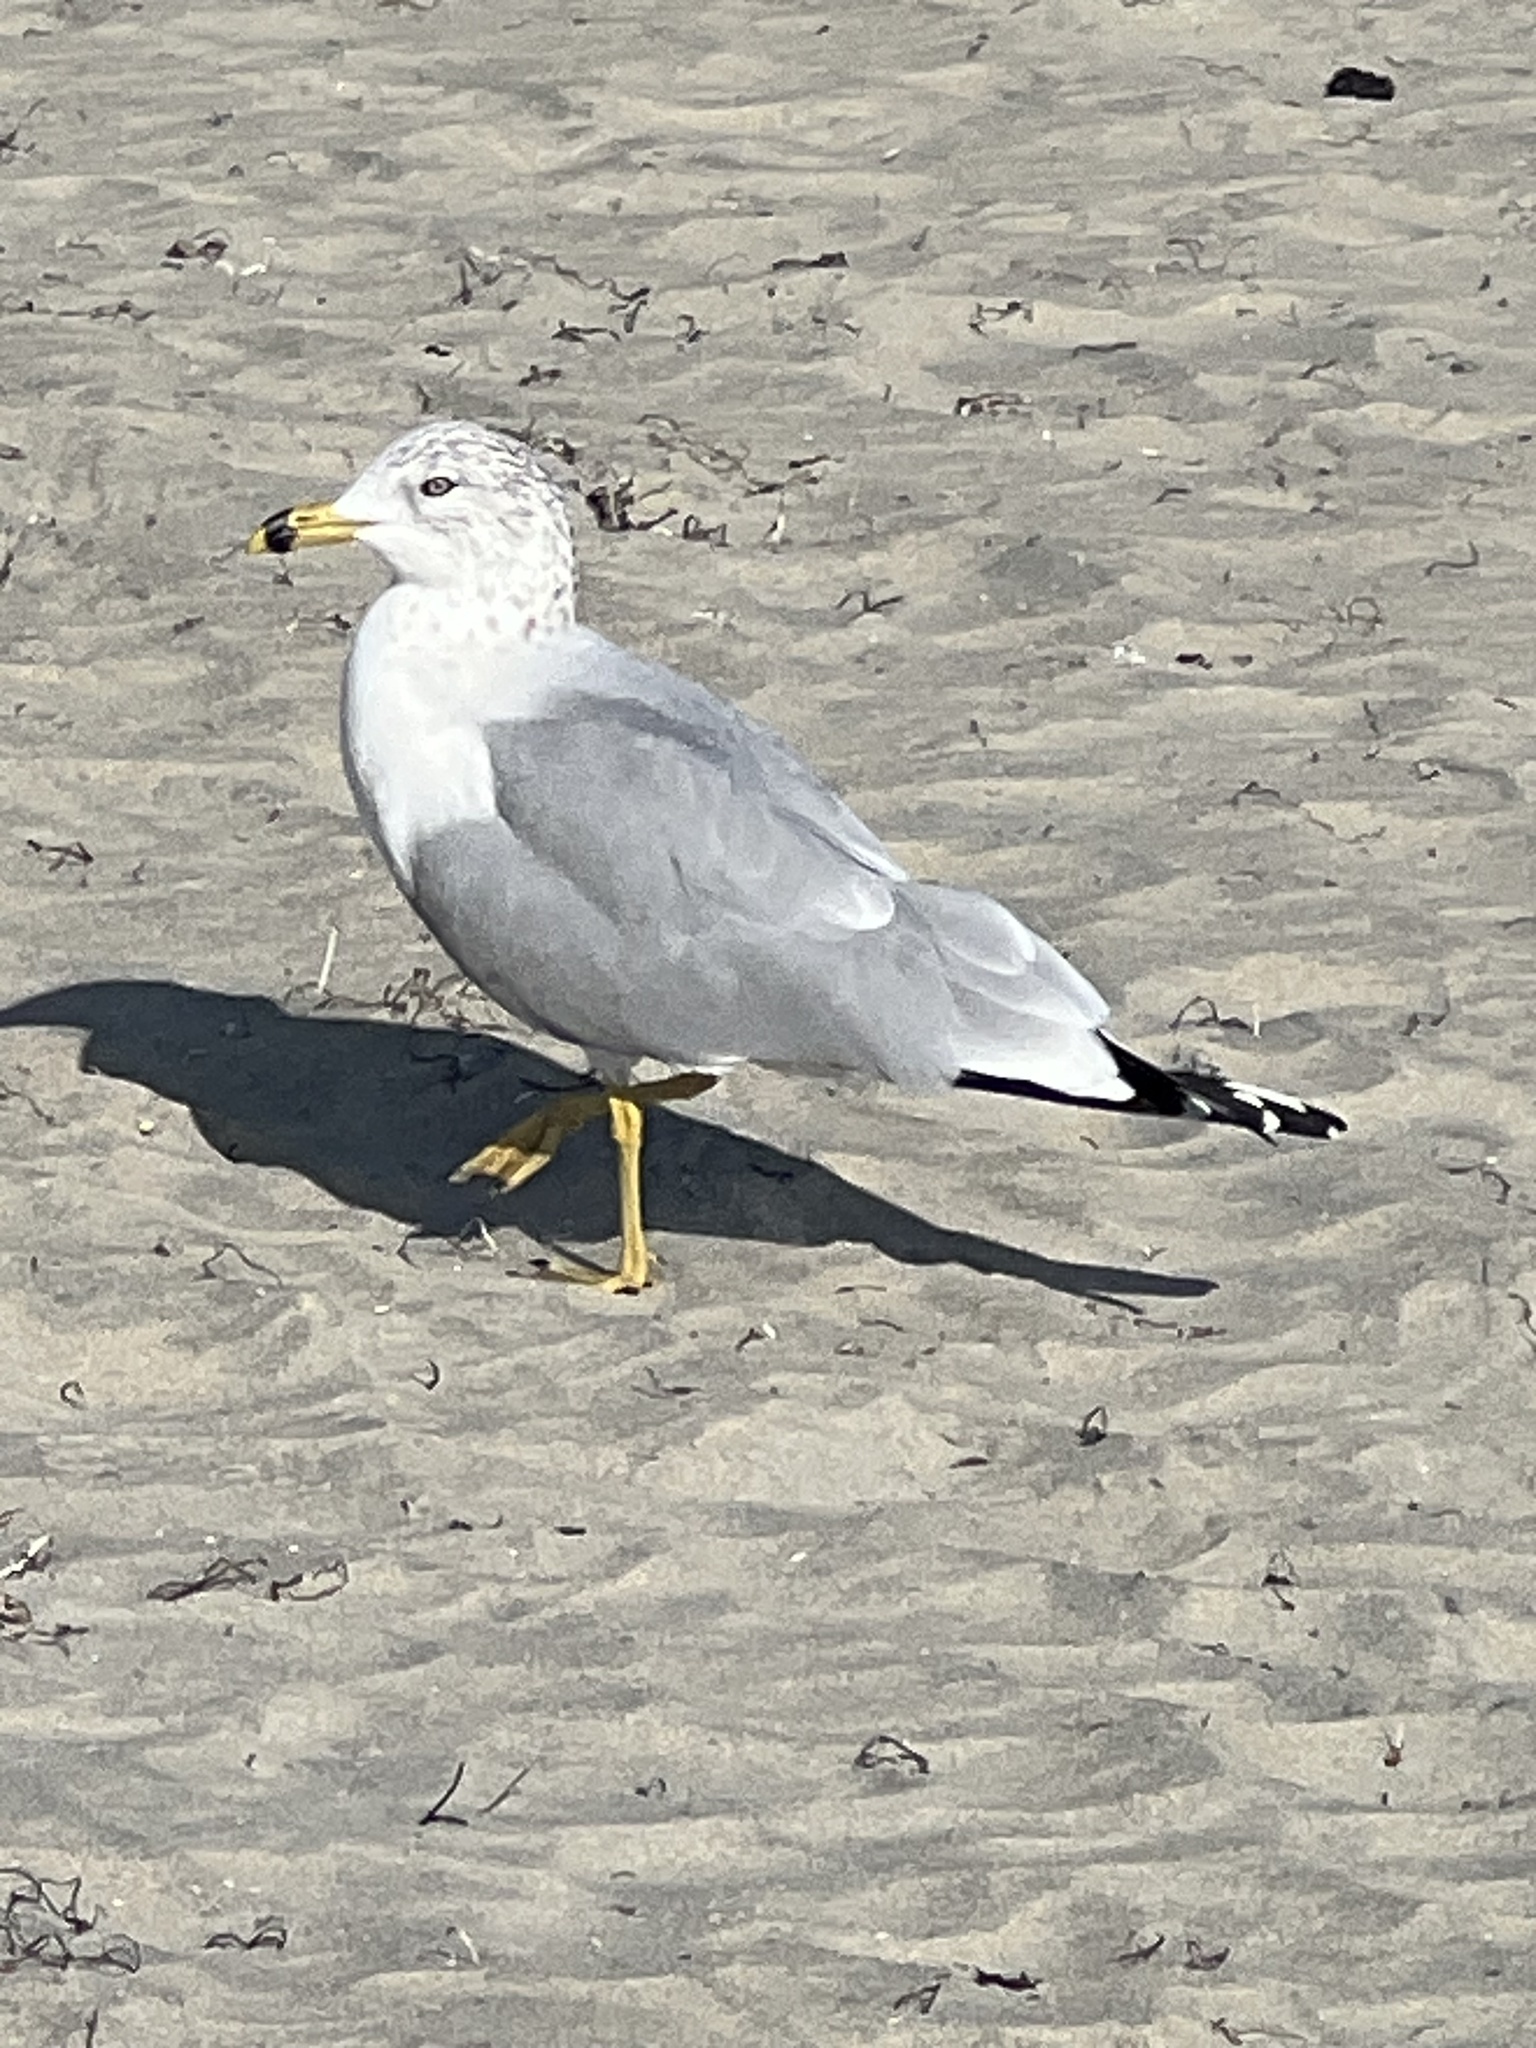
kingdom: Animalia
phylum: Chordata
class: Aves
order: Charadriiformes
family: Laridae
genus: Larus
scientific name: Larus delawarensis
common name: Ring-billed gull
